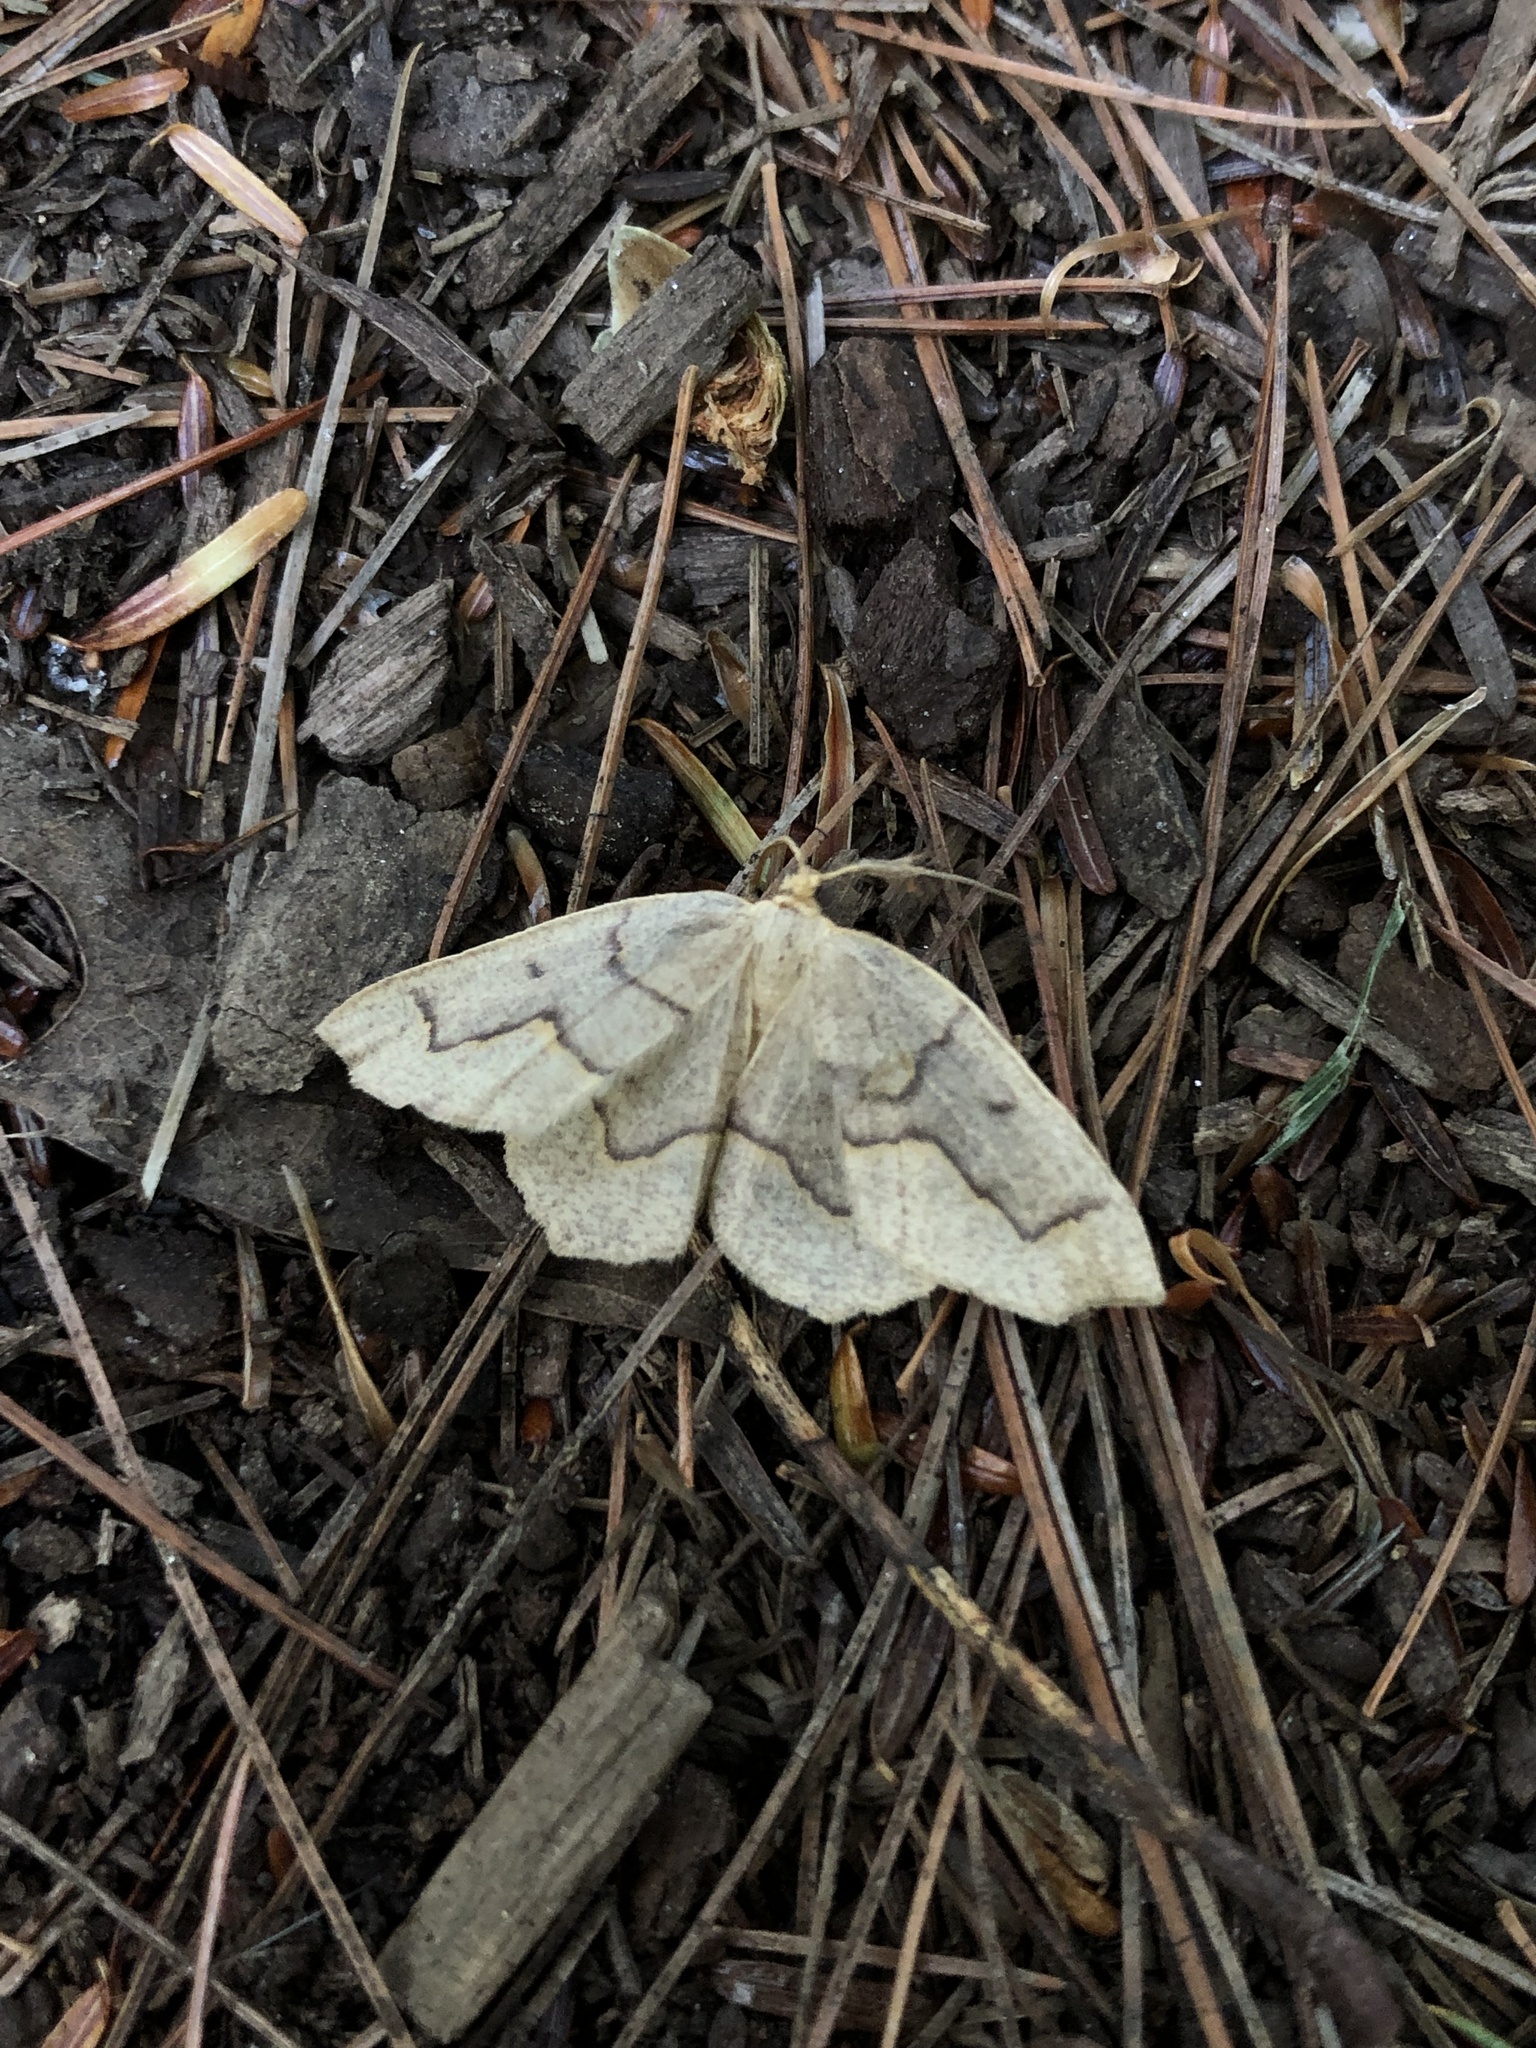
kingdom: Animalia
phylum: Arthropoda
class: Insecta
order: Lepidoptera
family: Geometridae
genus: Lambdina
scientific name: Lambdina fiscellaria
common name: Hemlock looper
